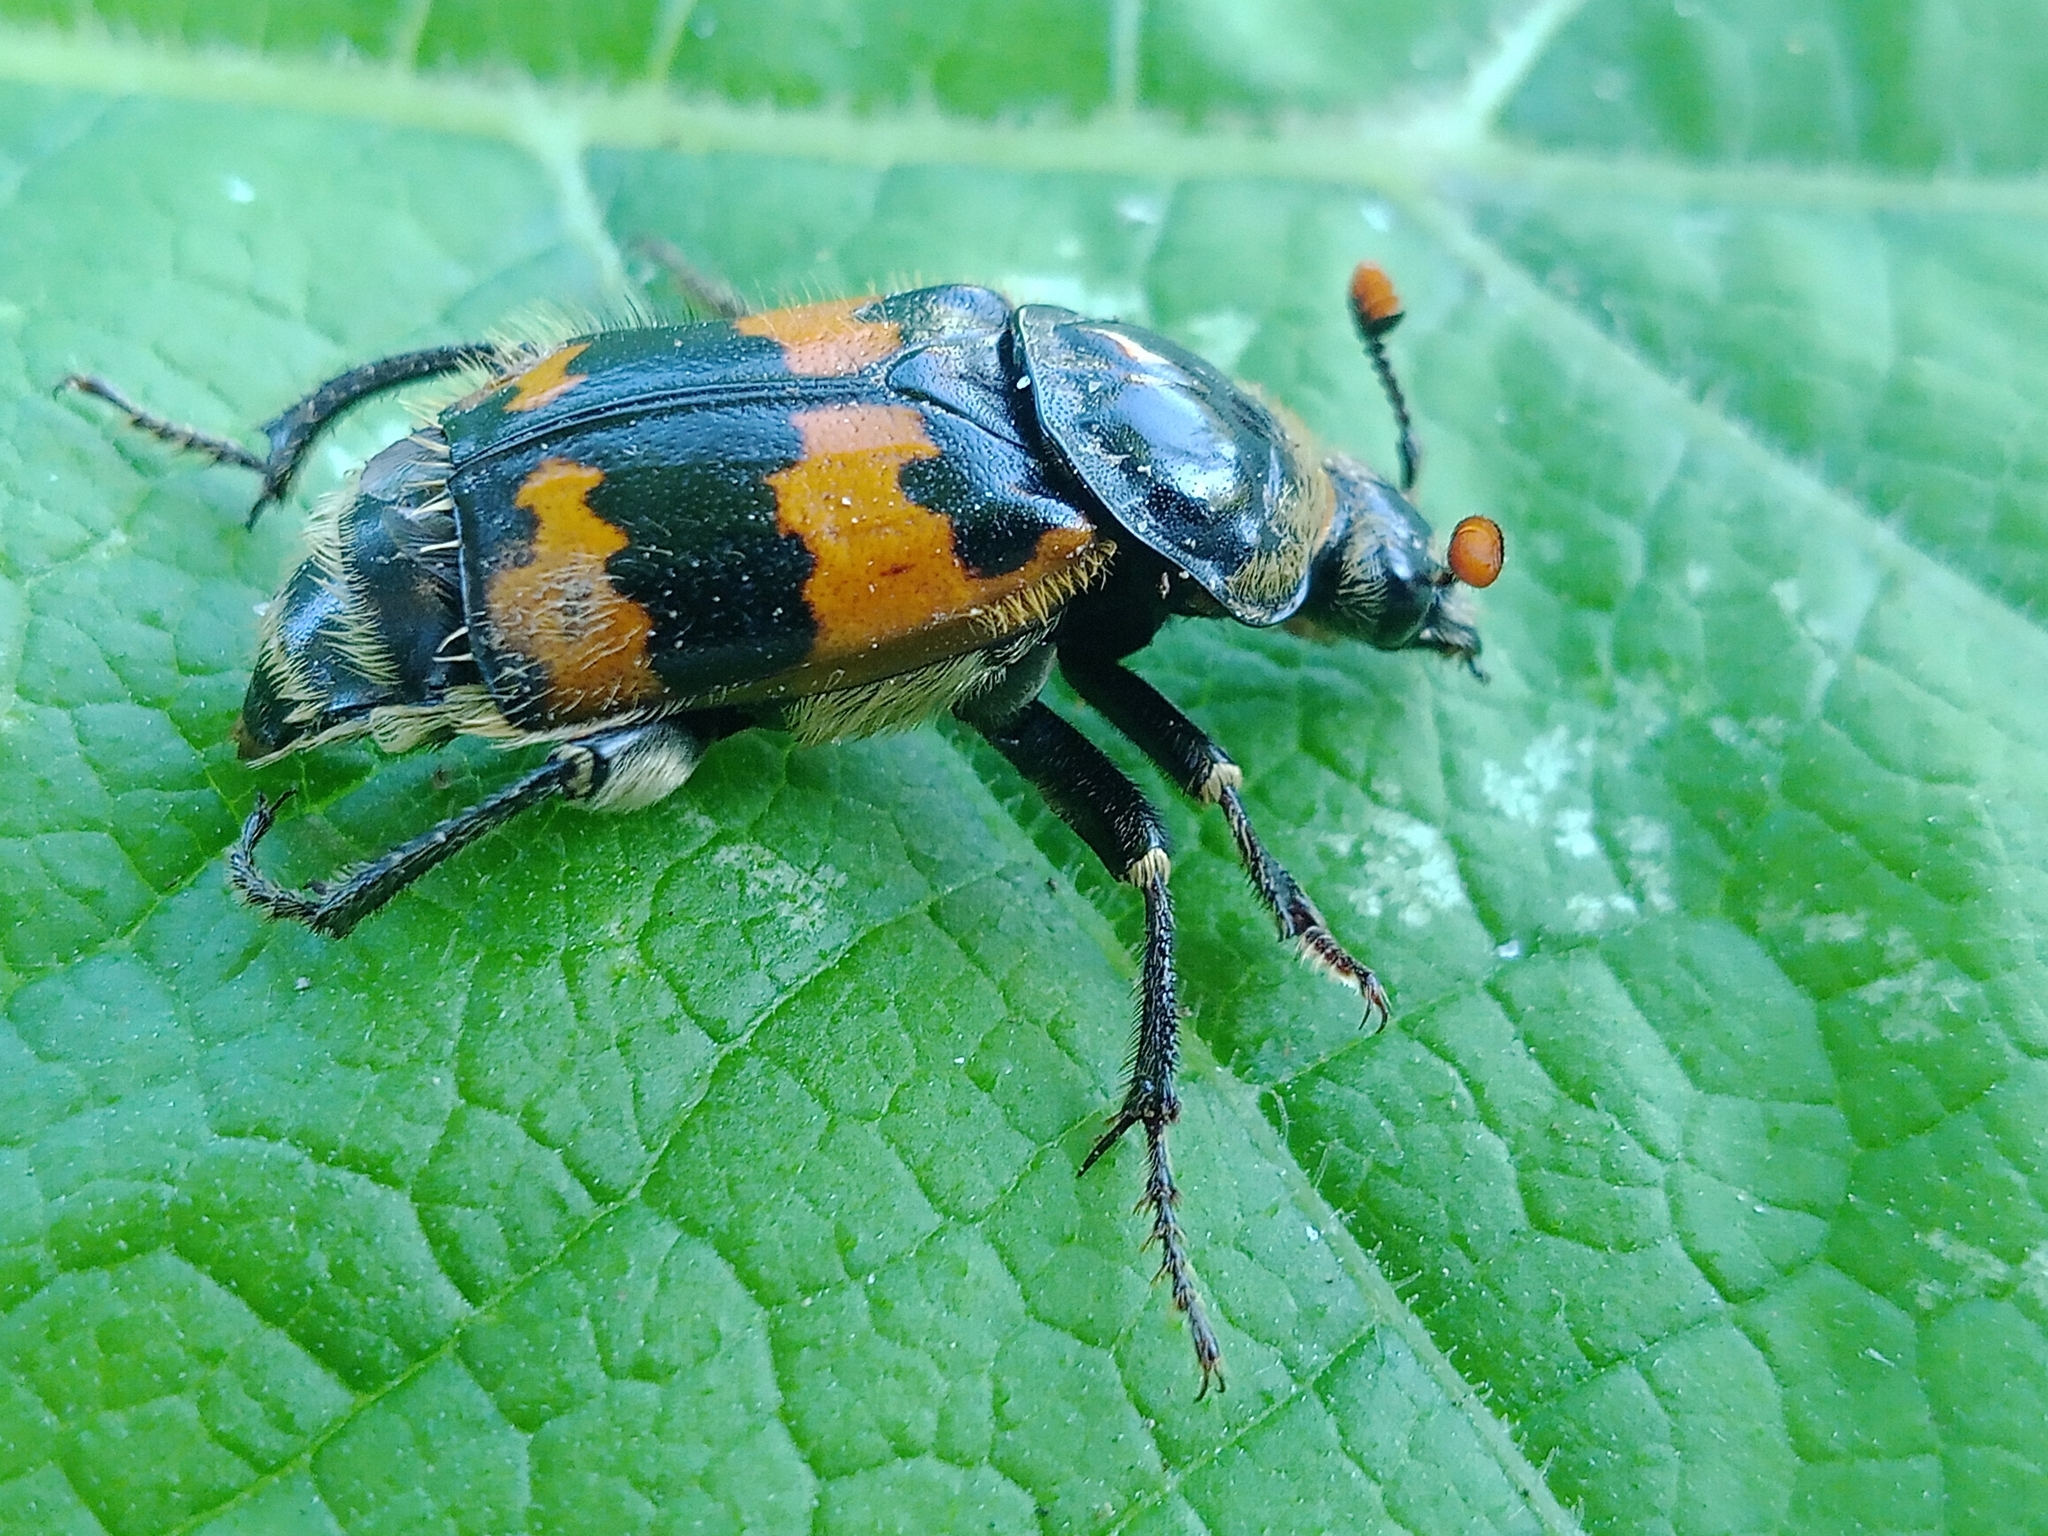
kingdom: Animalia
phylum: Arthropoda
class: Insecta
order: Coleoptera
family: Staphylinidae
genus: Nicrophorus
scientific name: Nicrophorus vespillo
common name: Common burying beetle
